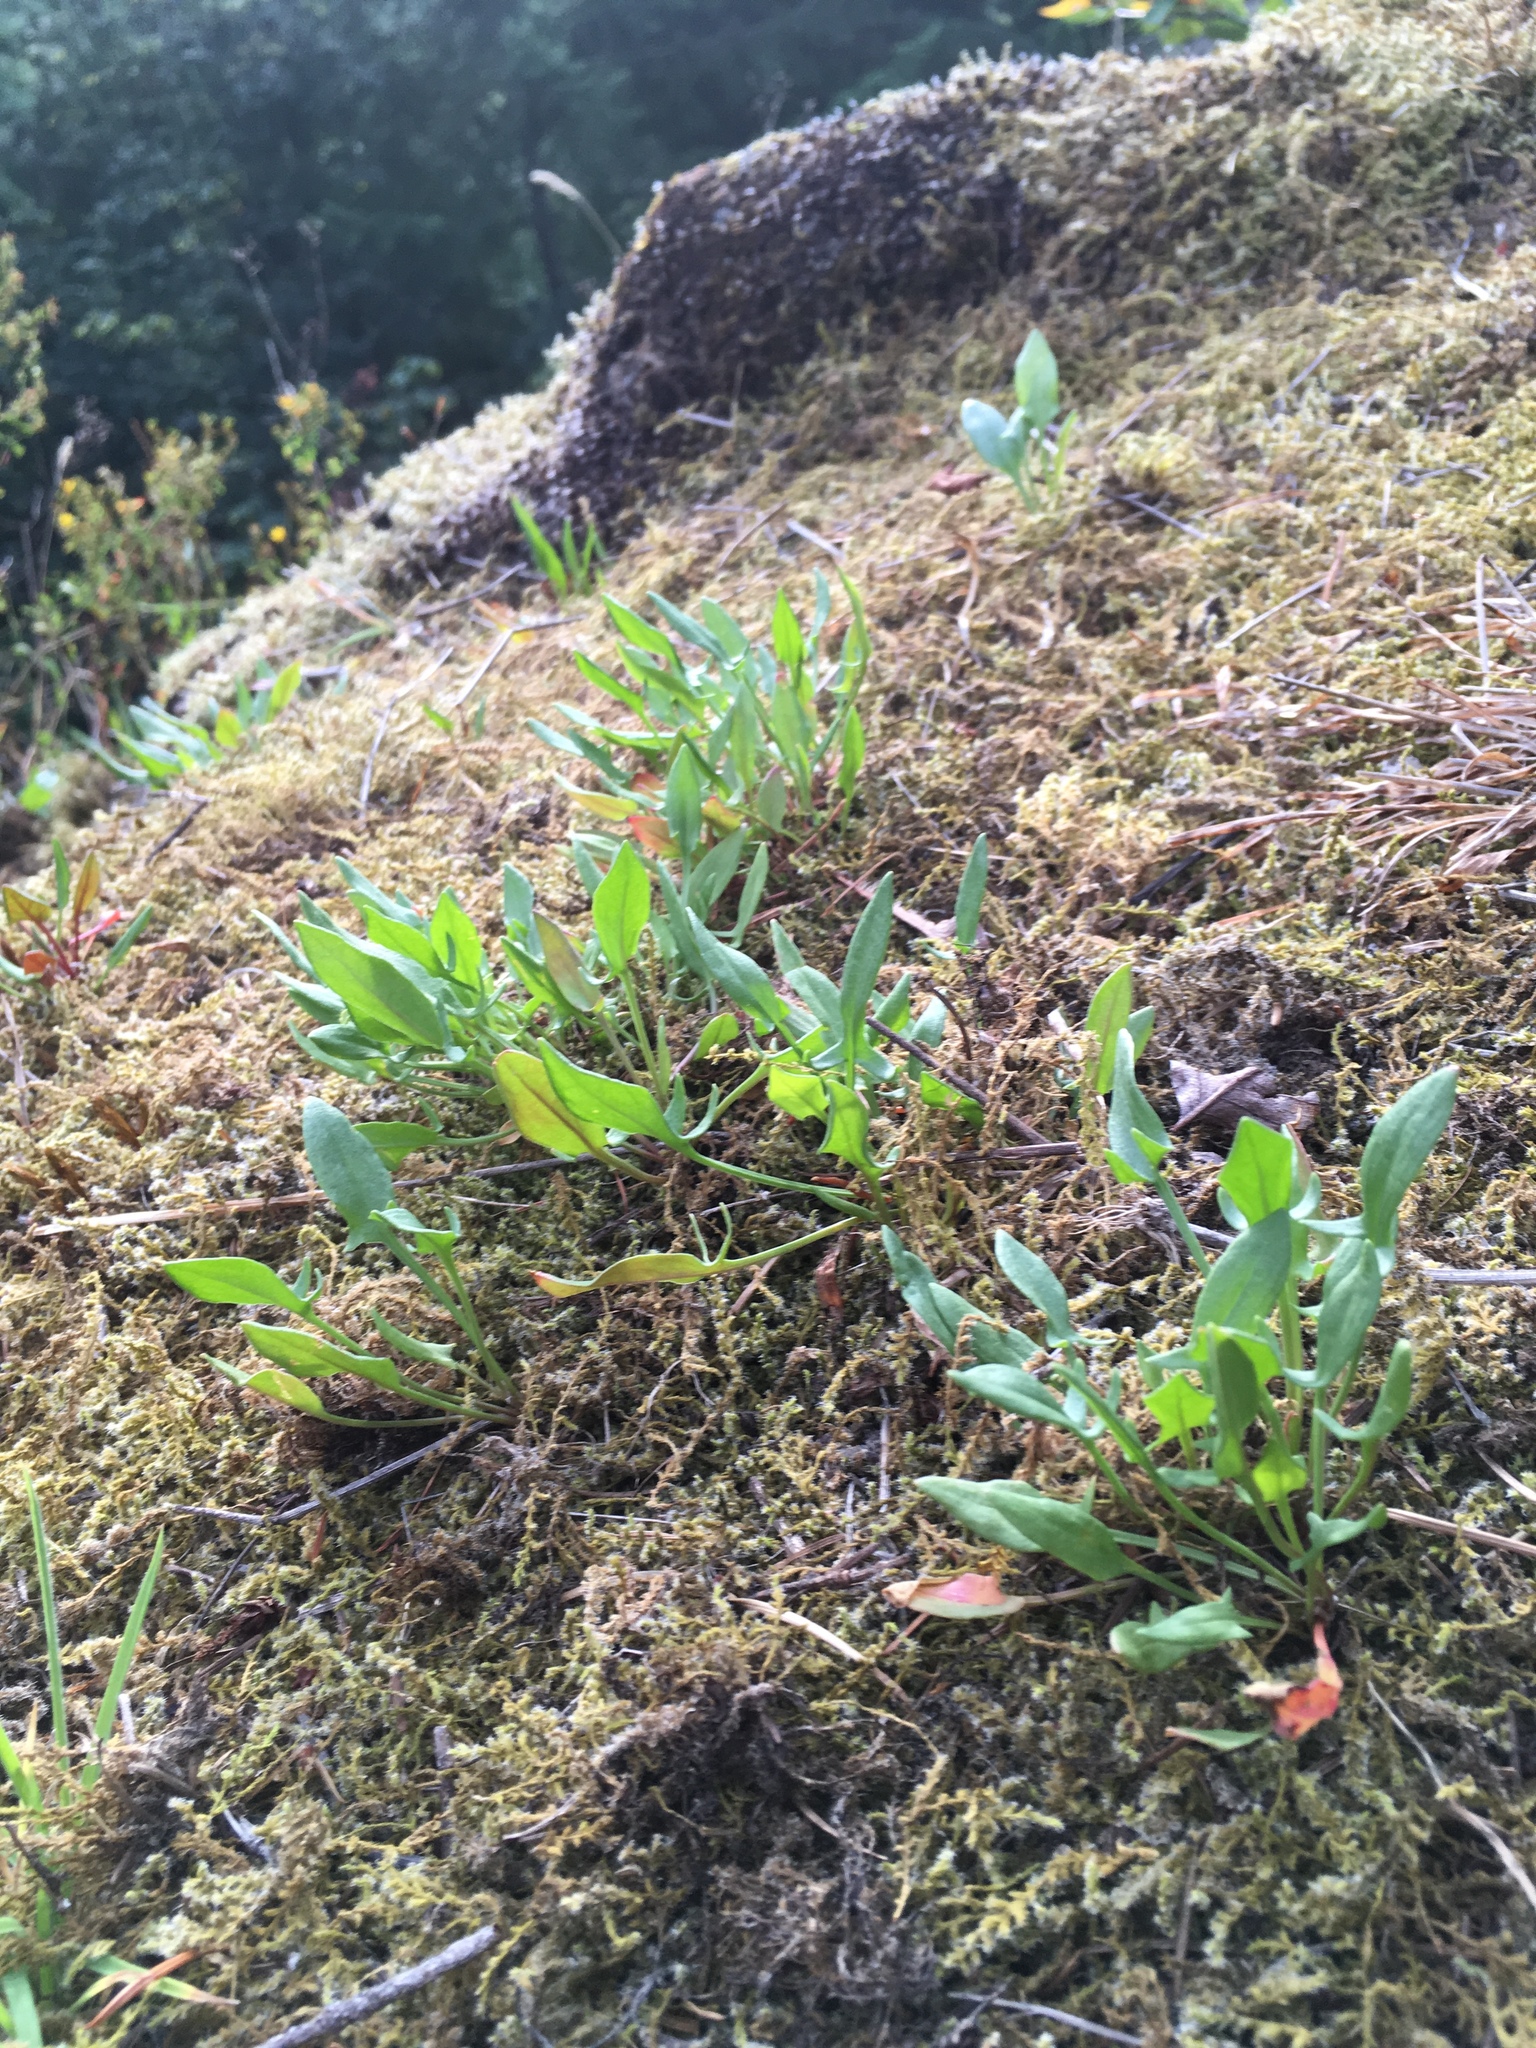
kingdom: Plantae
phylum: Tracheophyta
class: Magnoliopsida
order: Caryophyllales
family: Polygonaceae
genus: Rumex
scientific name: Rumex acetosella
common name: Common sheep sorrel
